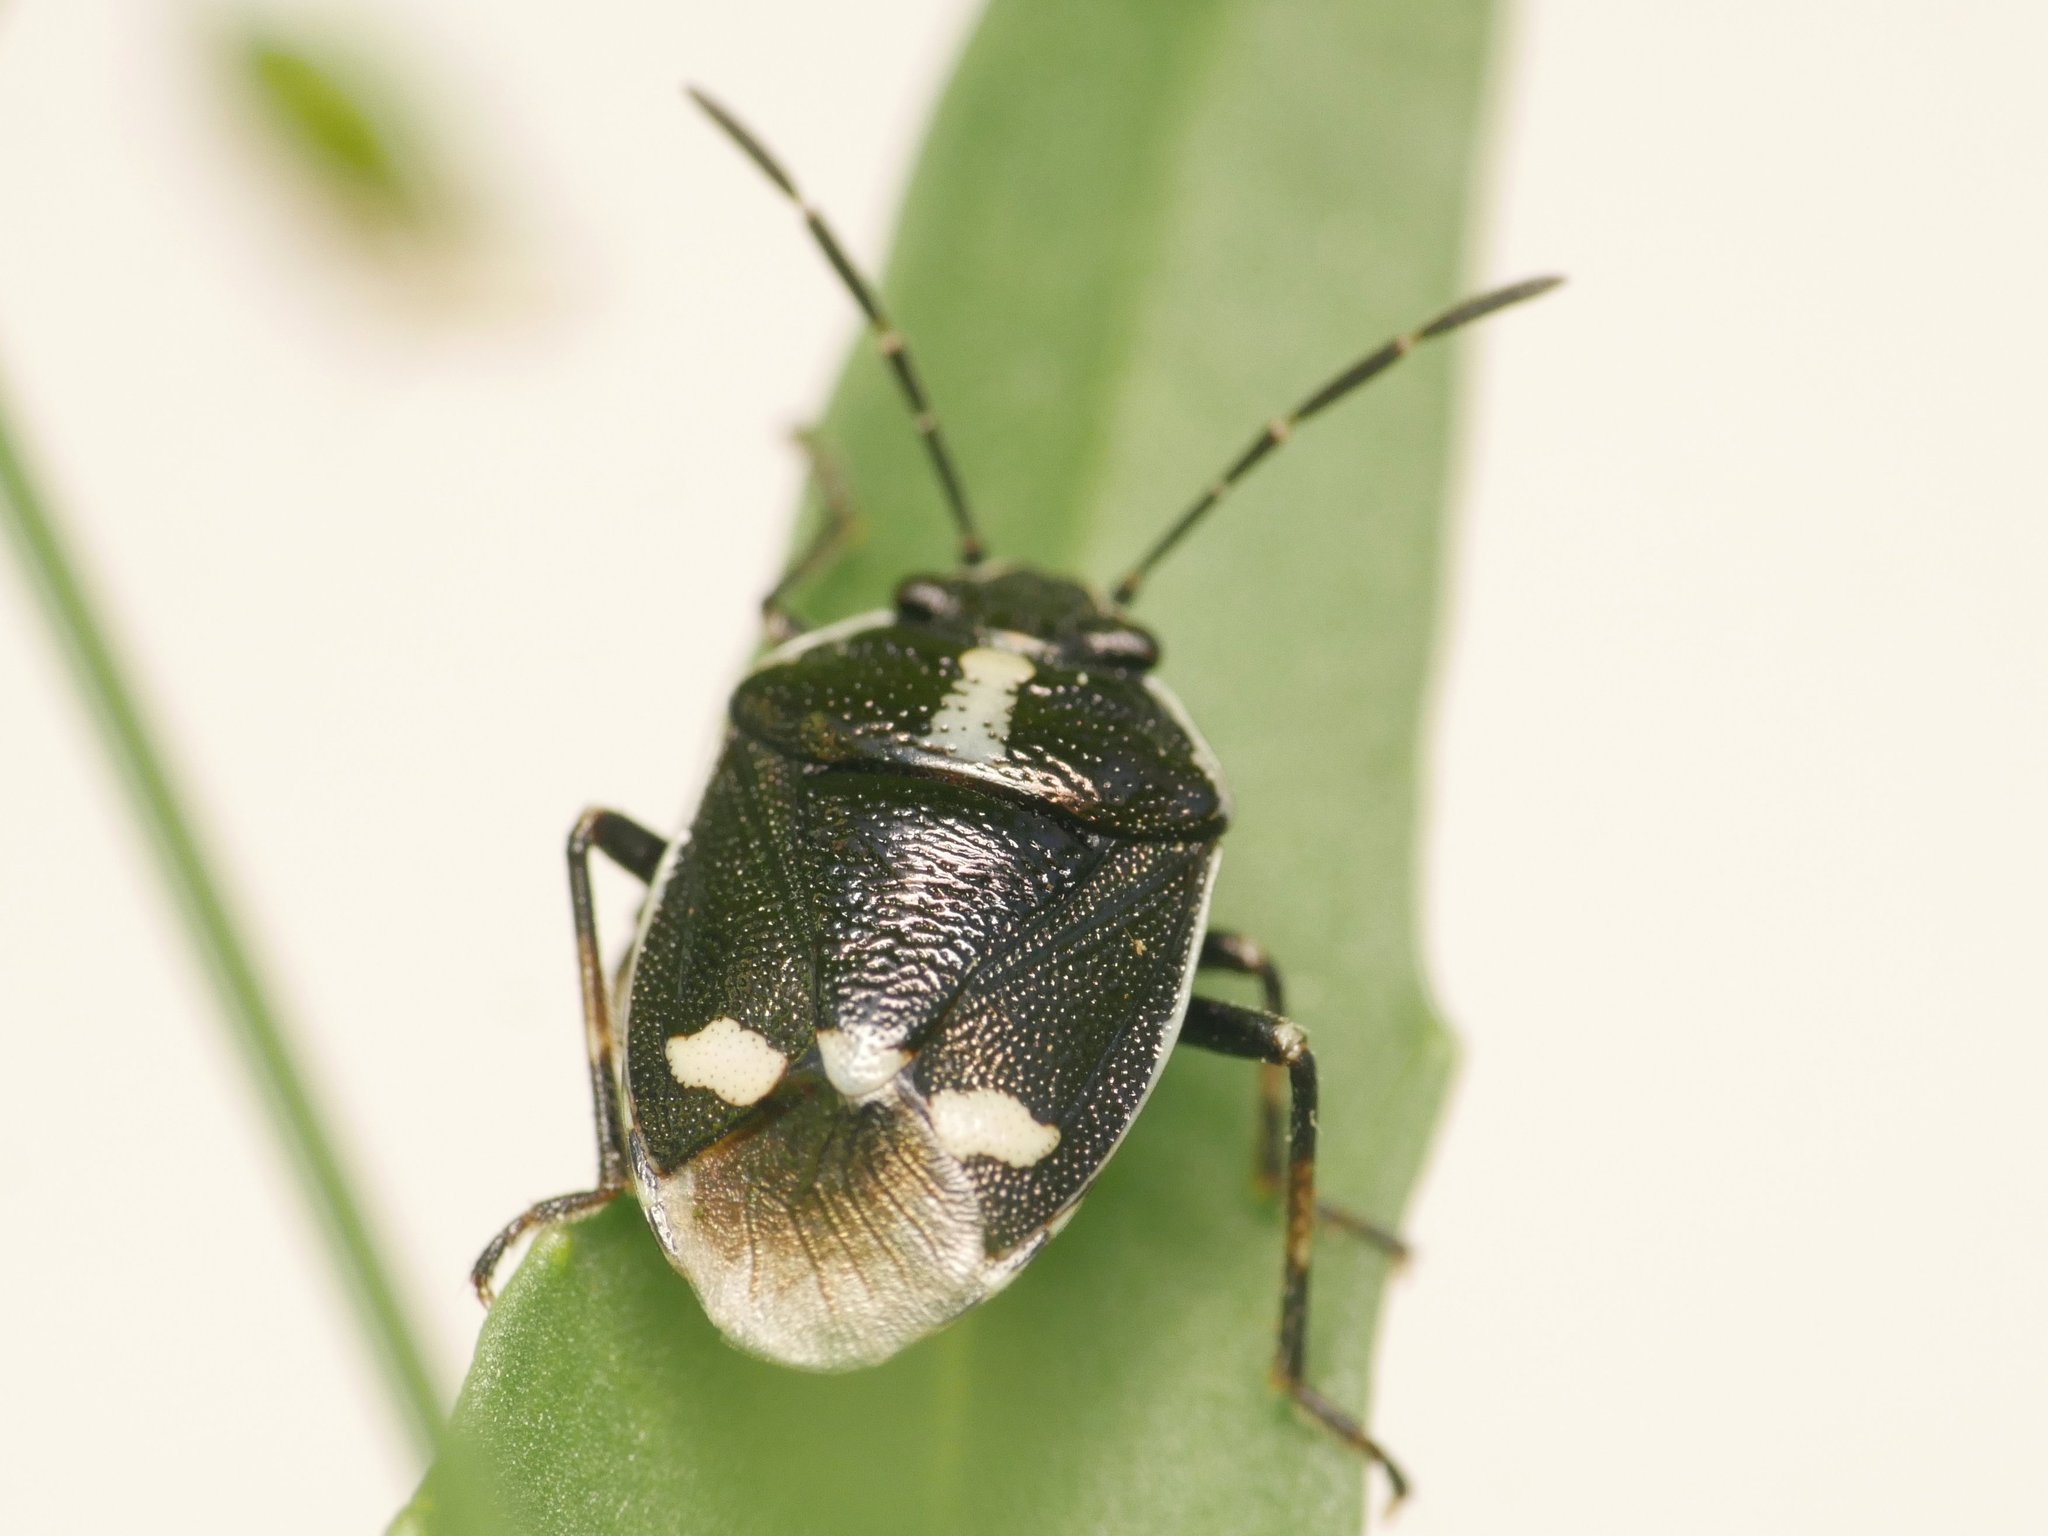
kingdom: Animalia
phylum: Arthropoda
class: Insecta
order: Hemiptera
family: Pentatomidae
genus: Eurydema
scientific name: Eurydema oleracea
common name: Cabbage bug
